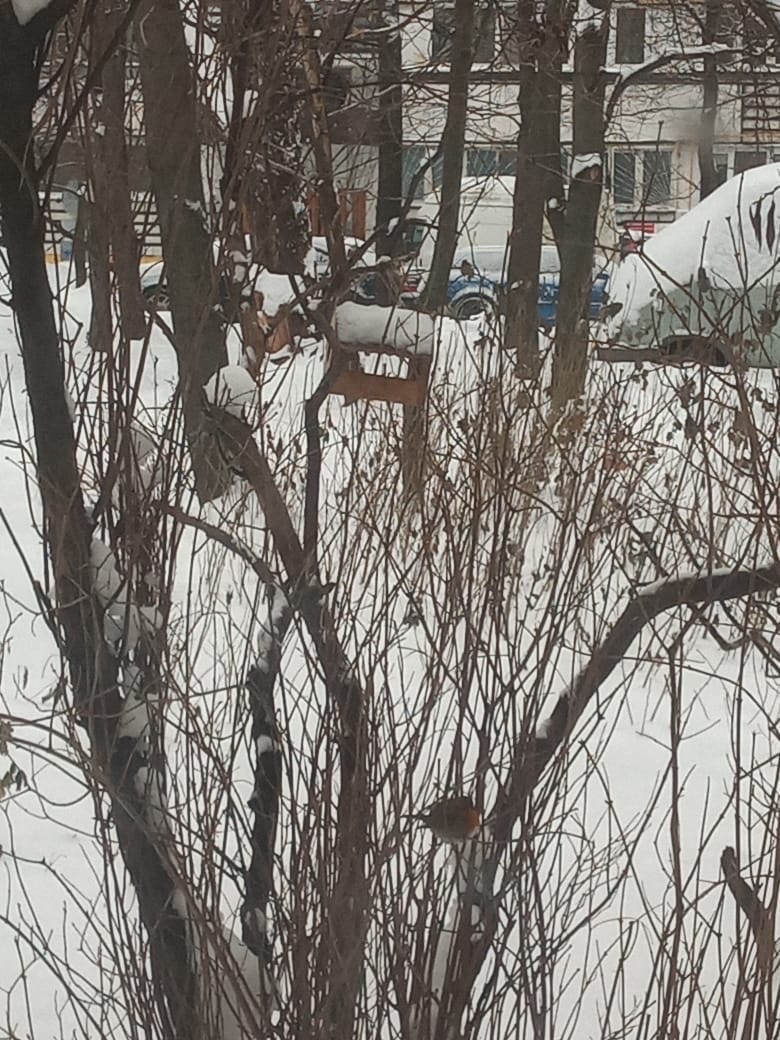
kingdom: Animalia
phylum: Chordata
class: Aves
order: Passeriformes
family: Muscicapidae
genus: Erithacus
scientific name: Erithacus rubecula
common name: European robin
